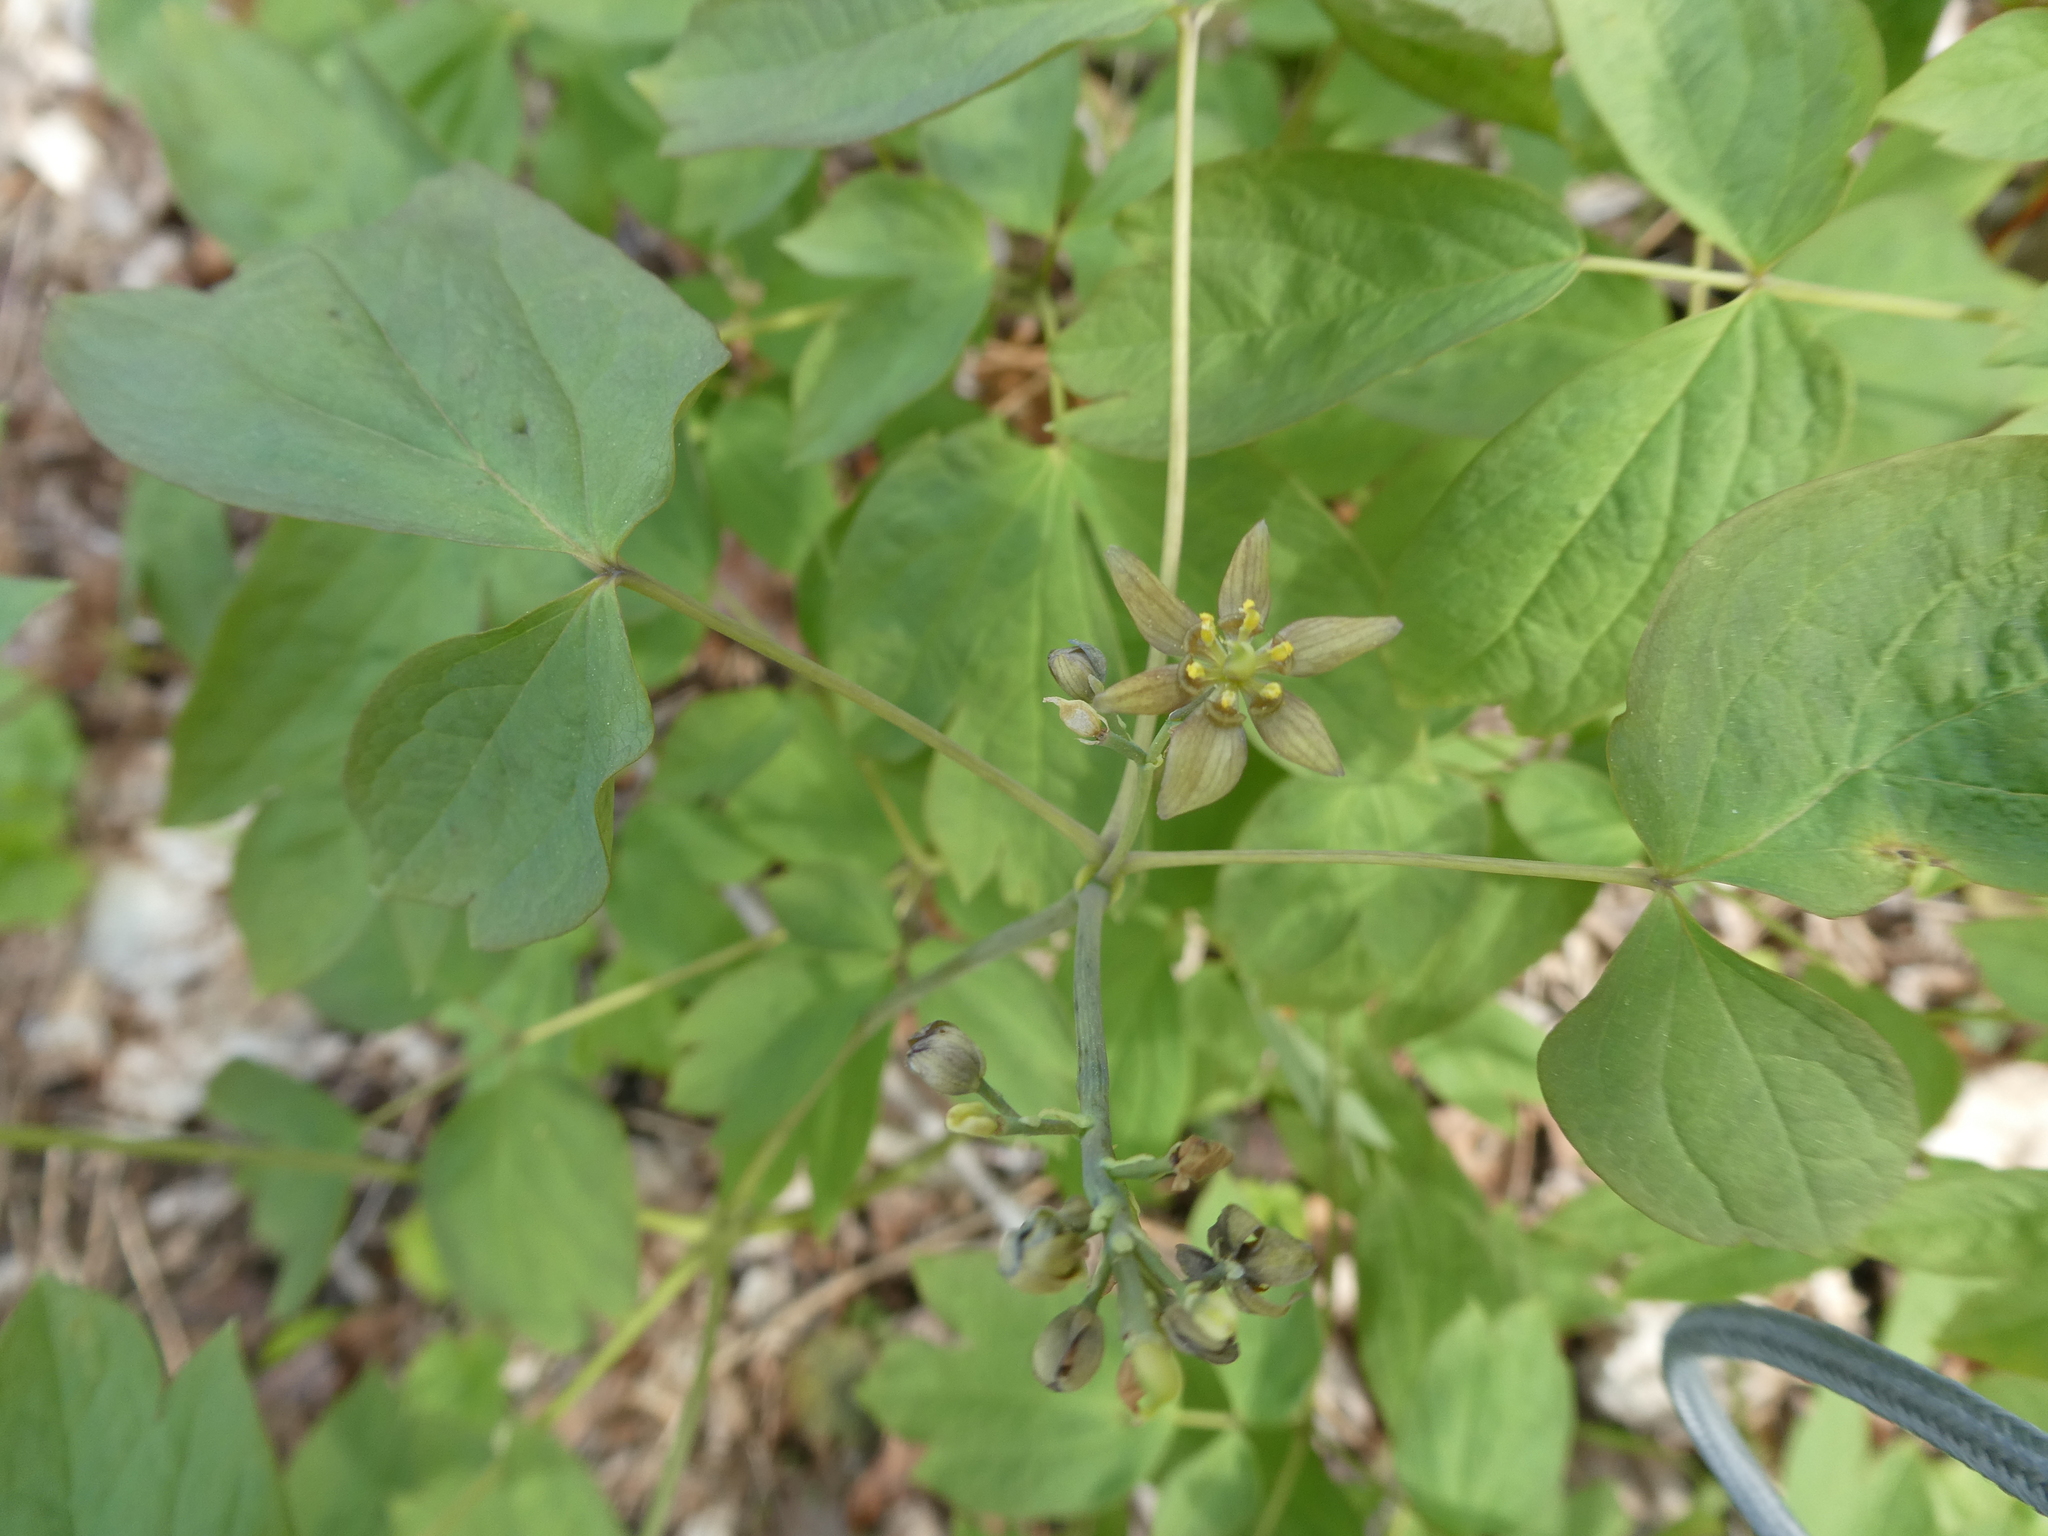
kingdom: Plantae
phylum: Tracheophyta
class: Magnoliopsida
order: Ranunculales
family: Berberidaceae
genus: Caulophyllum
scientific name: Caulophyllum thalictroides
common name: Blue cohosh
